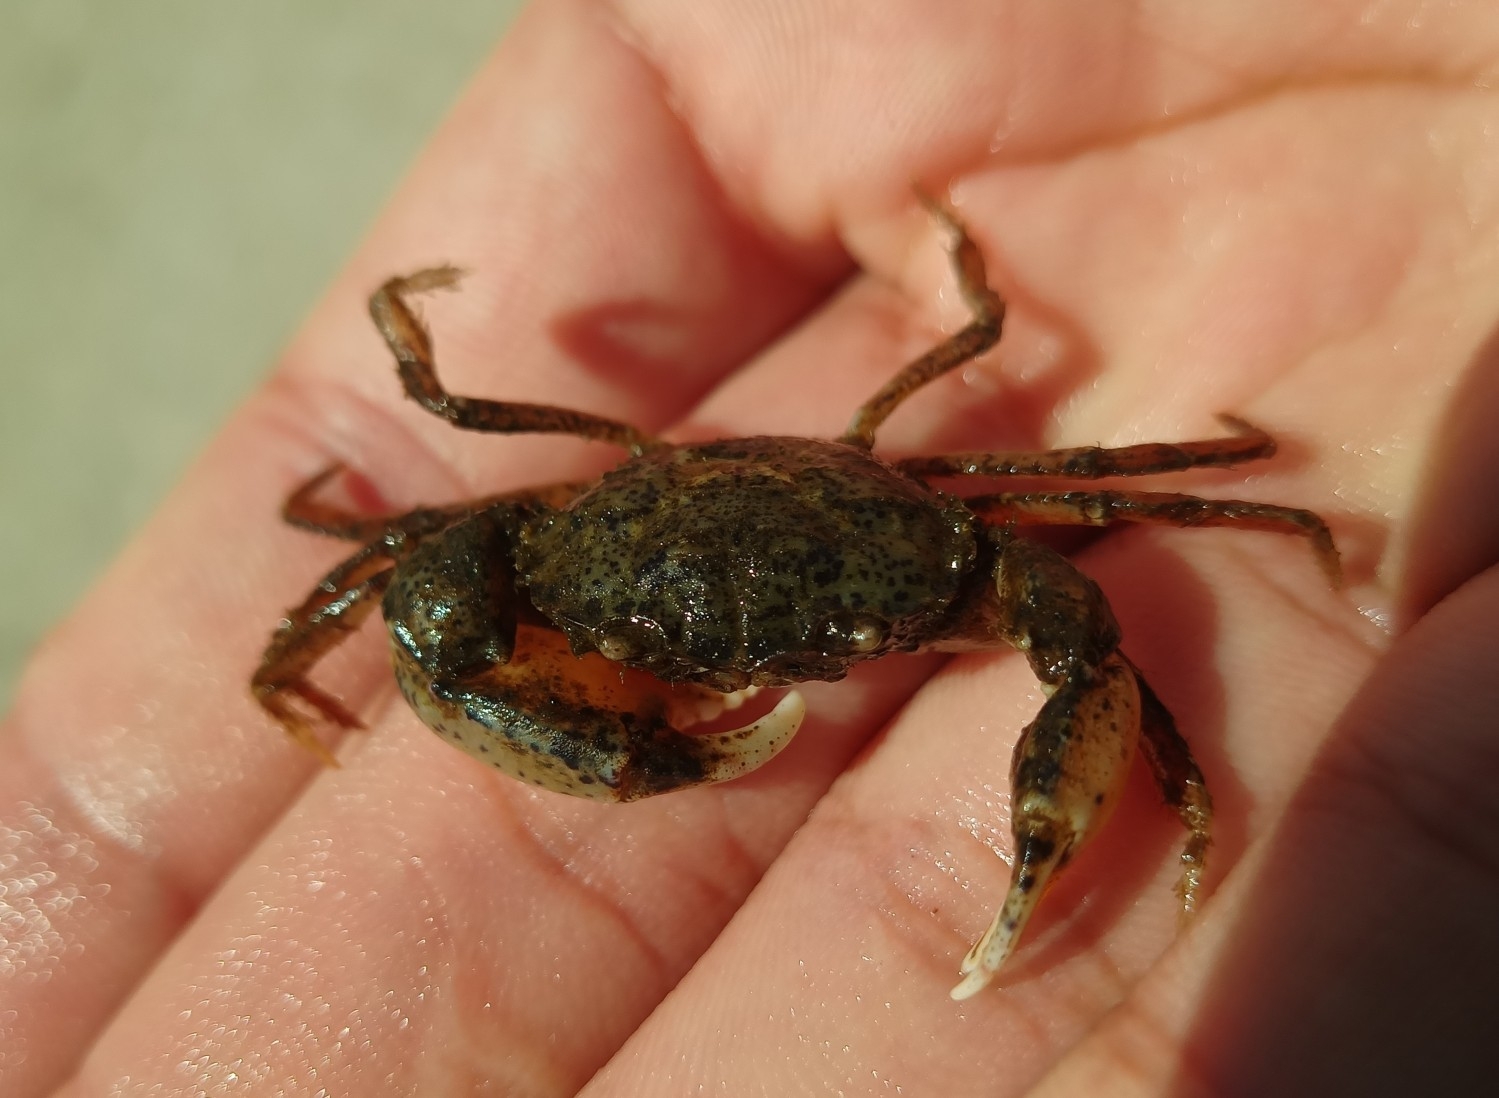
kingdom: Animalia
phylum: Arthropoda
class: Malacostraca
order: Decapoda
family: Panopeidae
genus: Rhithropanopeus
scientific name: Rhithropanopeus harrisii
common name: Dwarf crab
